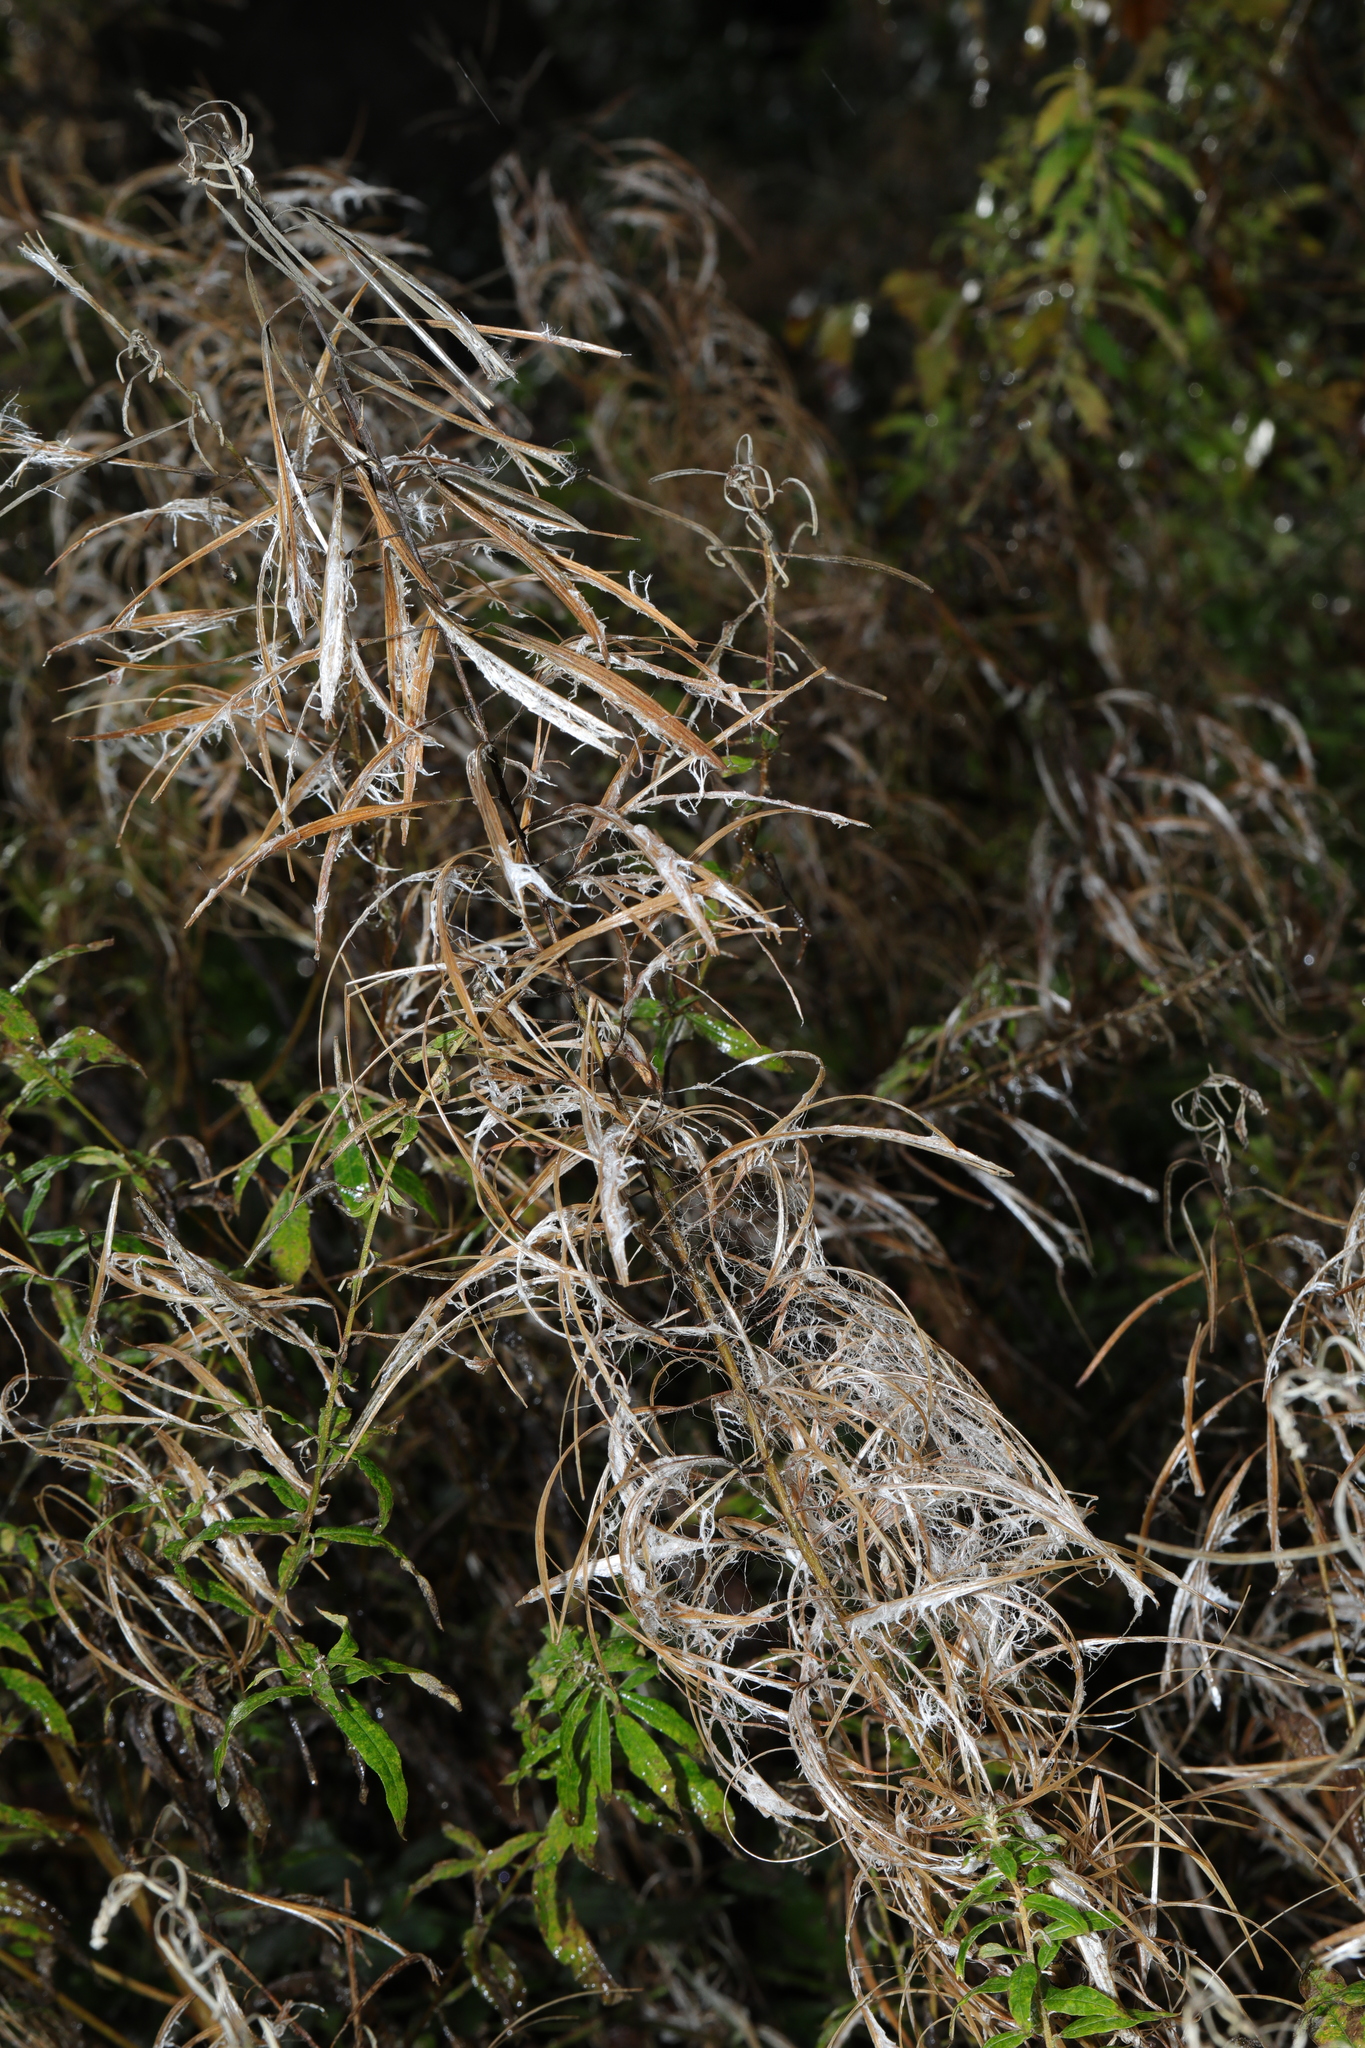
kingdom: Plantae
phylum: Tracheophyta
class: Magnoliopsida
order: Myrtales
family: Onagraceae
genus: Chamaenerion
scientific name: Chamaenerion angustifolium
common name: Fireweed
